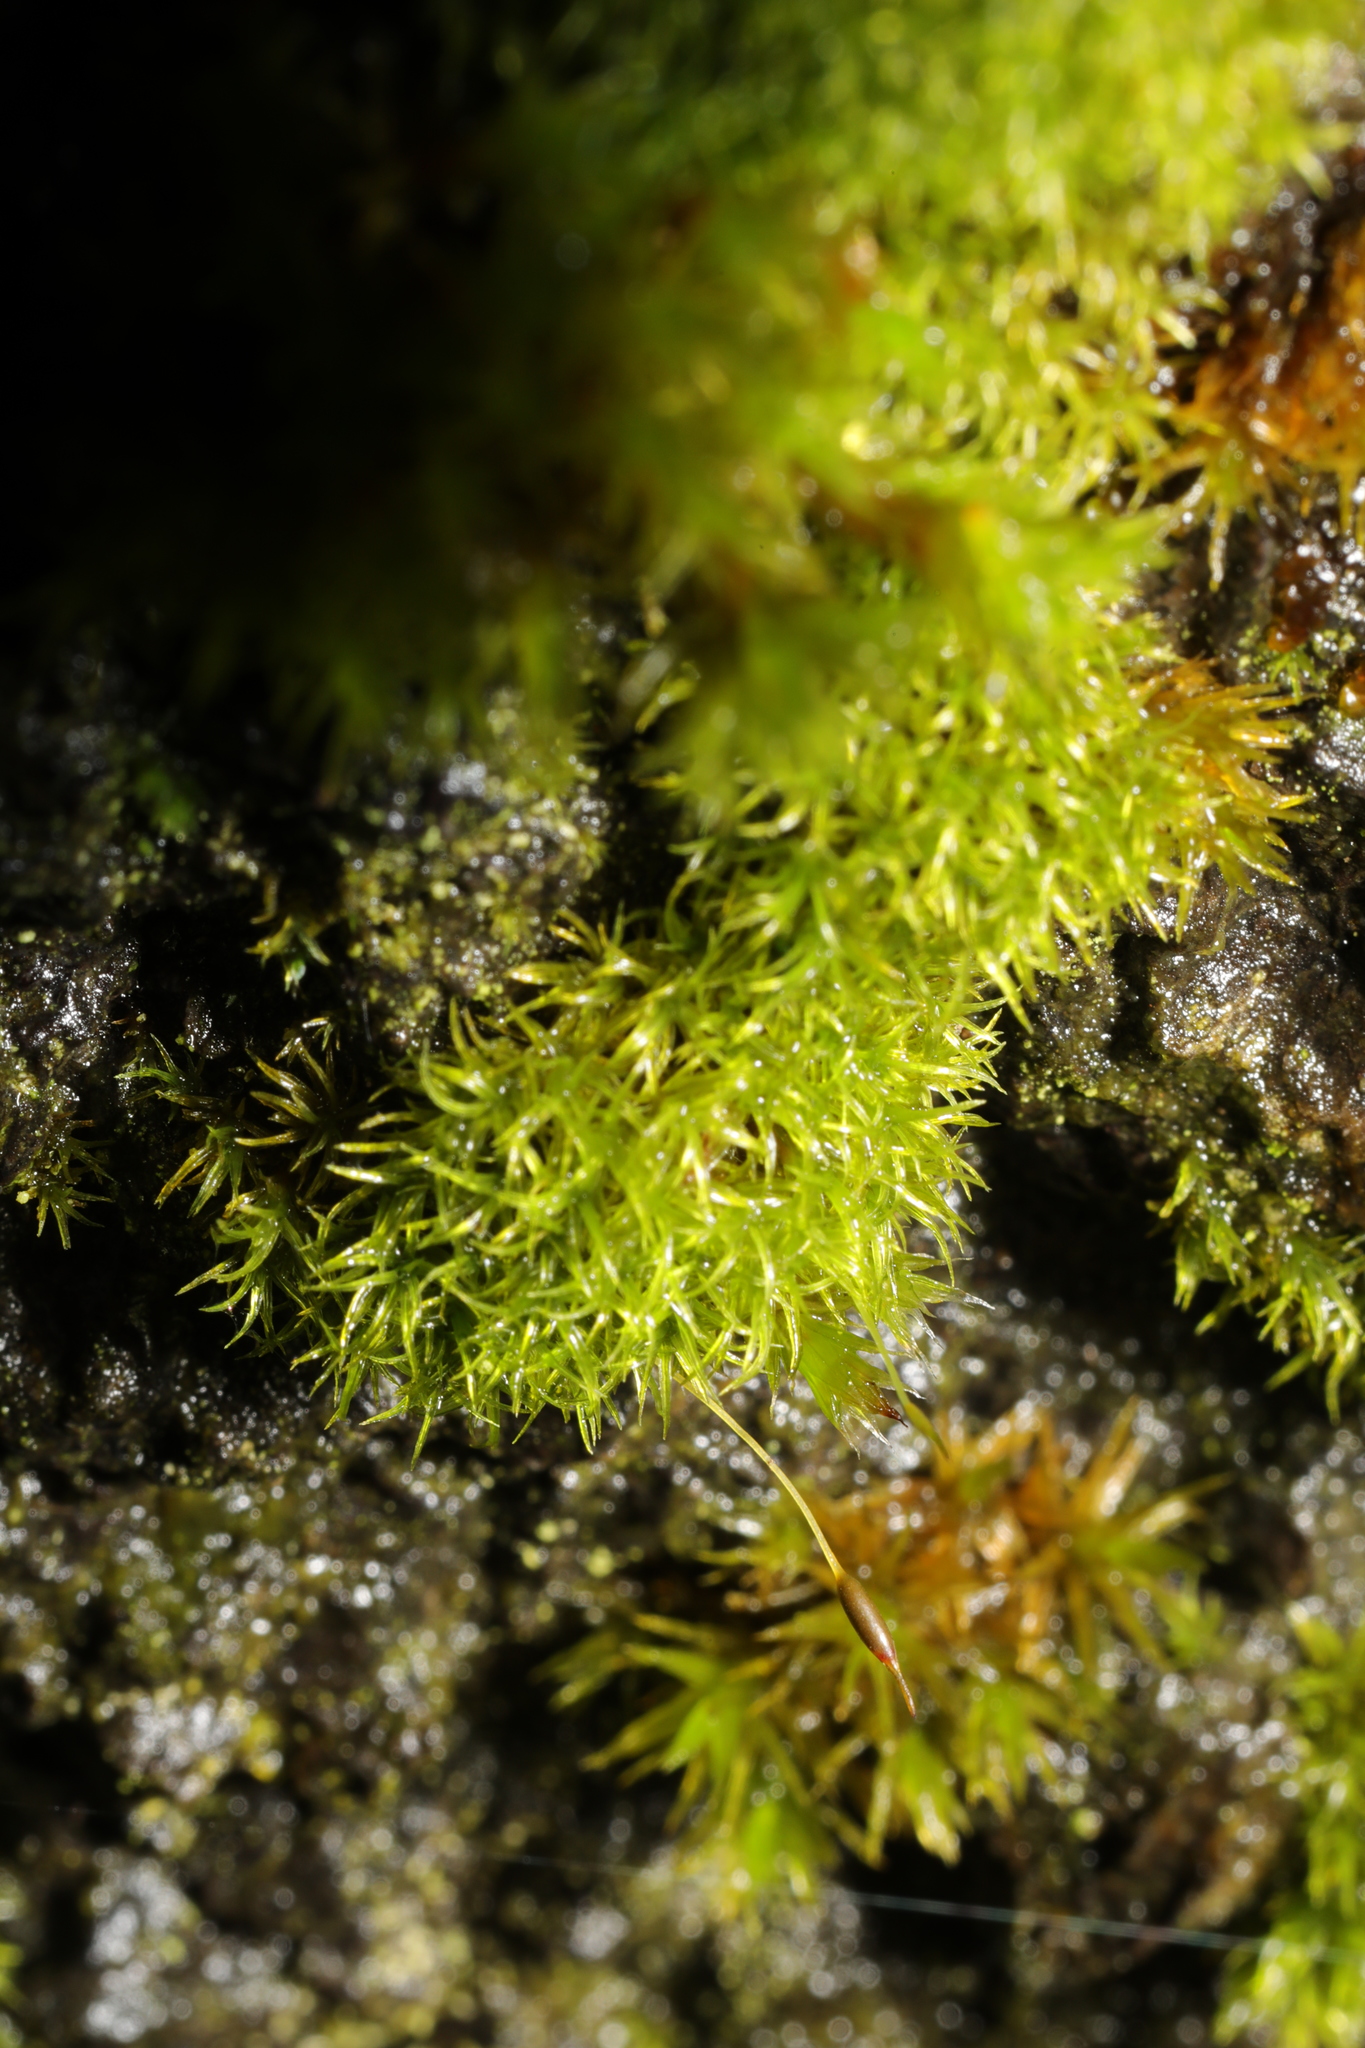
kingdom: Plantae
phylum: Bryophyta
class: Bryopsida
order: Pottiales
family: Pottiaceae
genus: Bryoerythrophyllum
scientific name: Bryoerythrophyllum recurvirostrum
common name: Red beard moss
